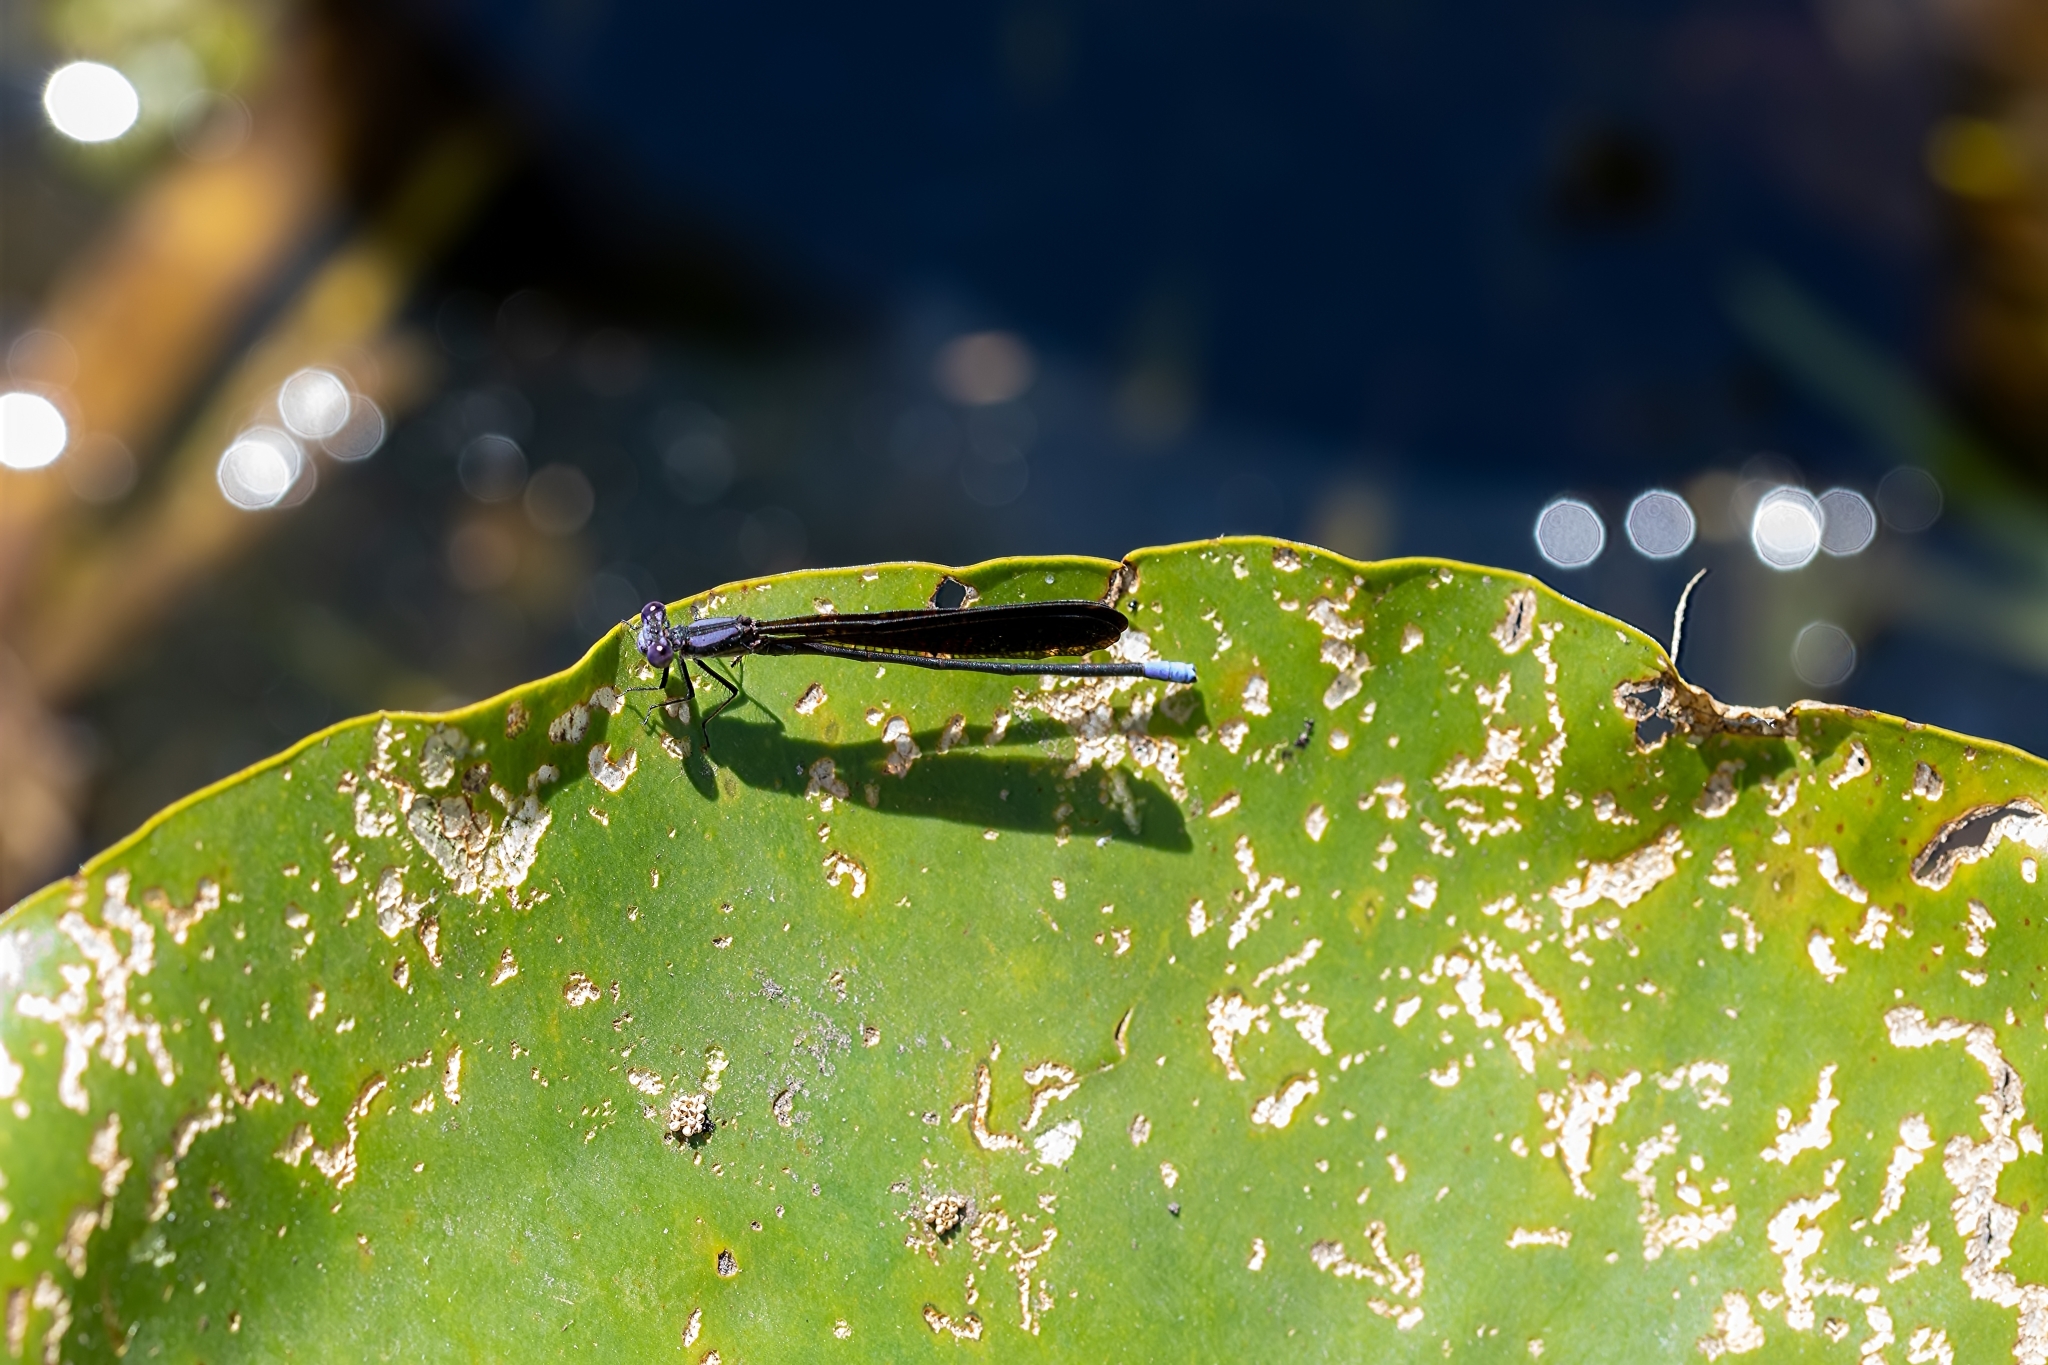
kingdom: Animalia
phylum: Arthropoda
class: Insecta
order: Odonata
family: Coenagrionidae
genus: Argia
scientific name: Argia fumipennis
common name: Variable dancer
